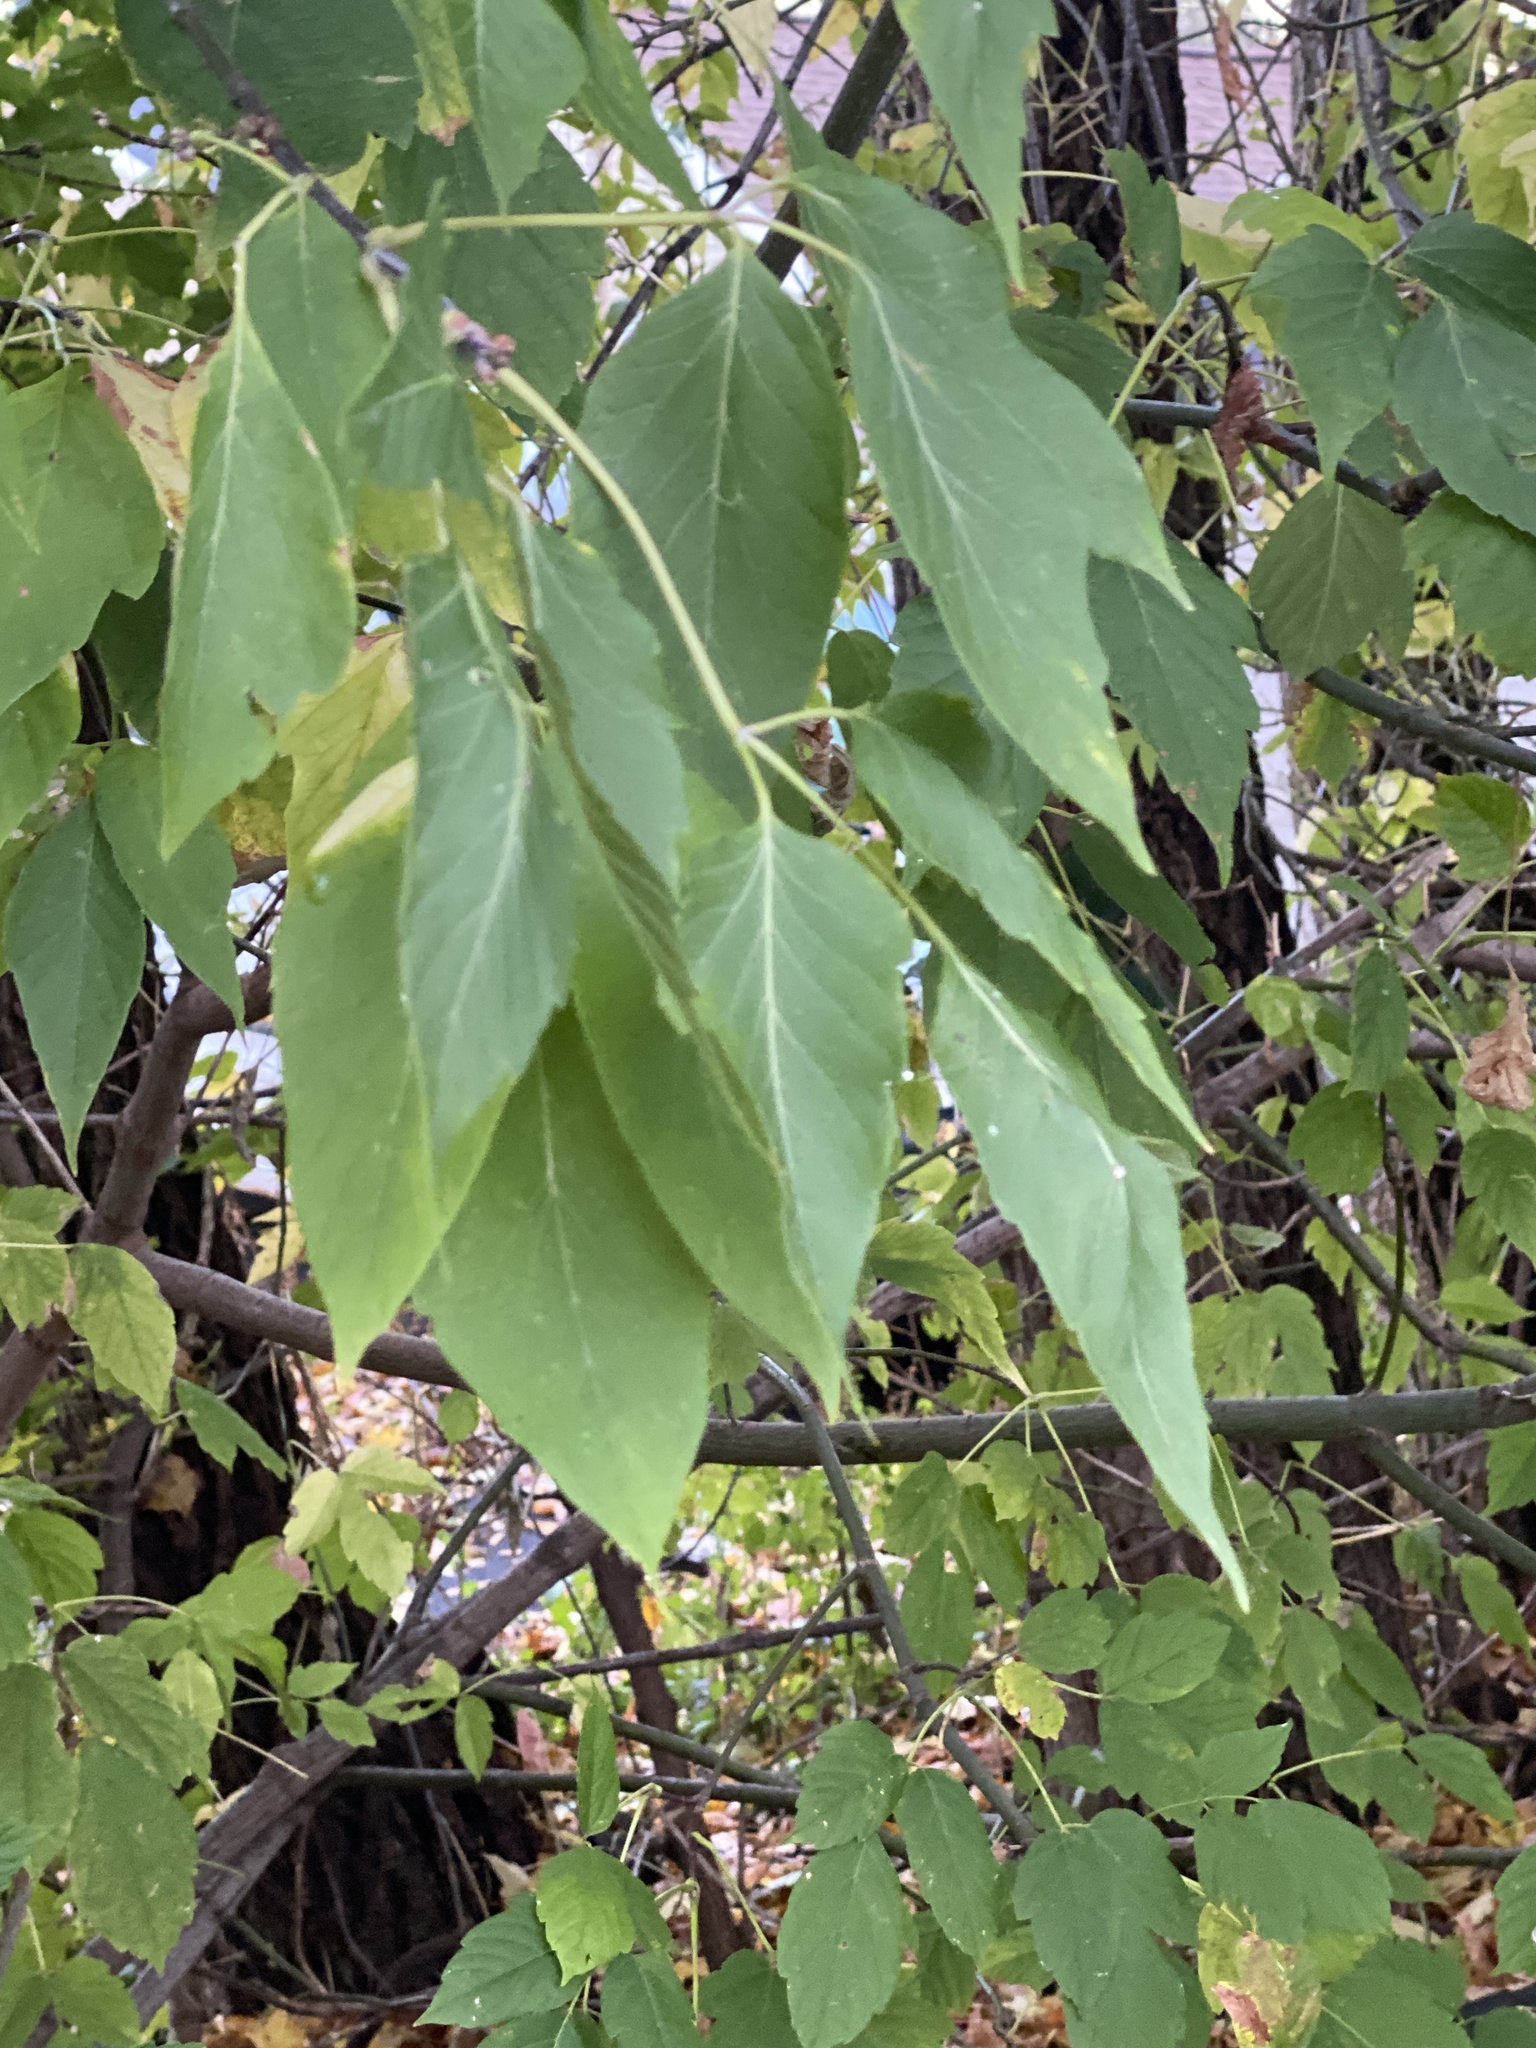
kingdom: Plantae
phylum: Tracheophyta
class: Magnoliopsida
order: Sapindales
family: Sapindaceae
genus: Acer
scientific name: Acer negundo
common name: Ashleaf maple
